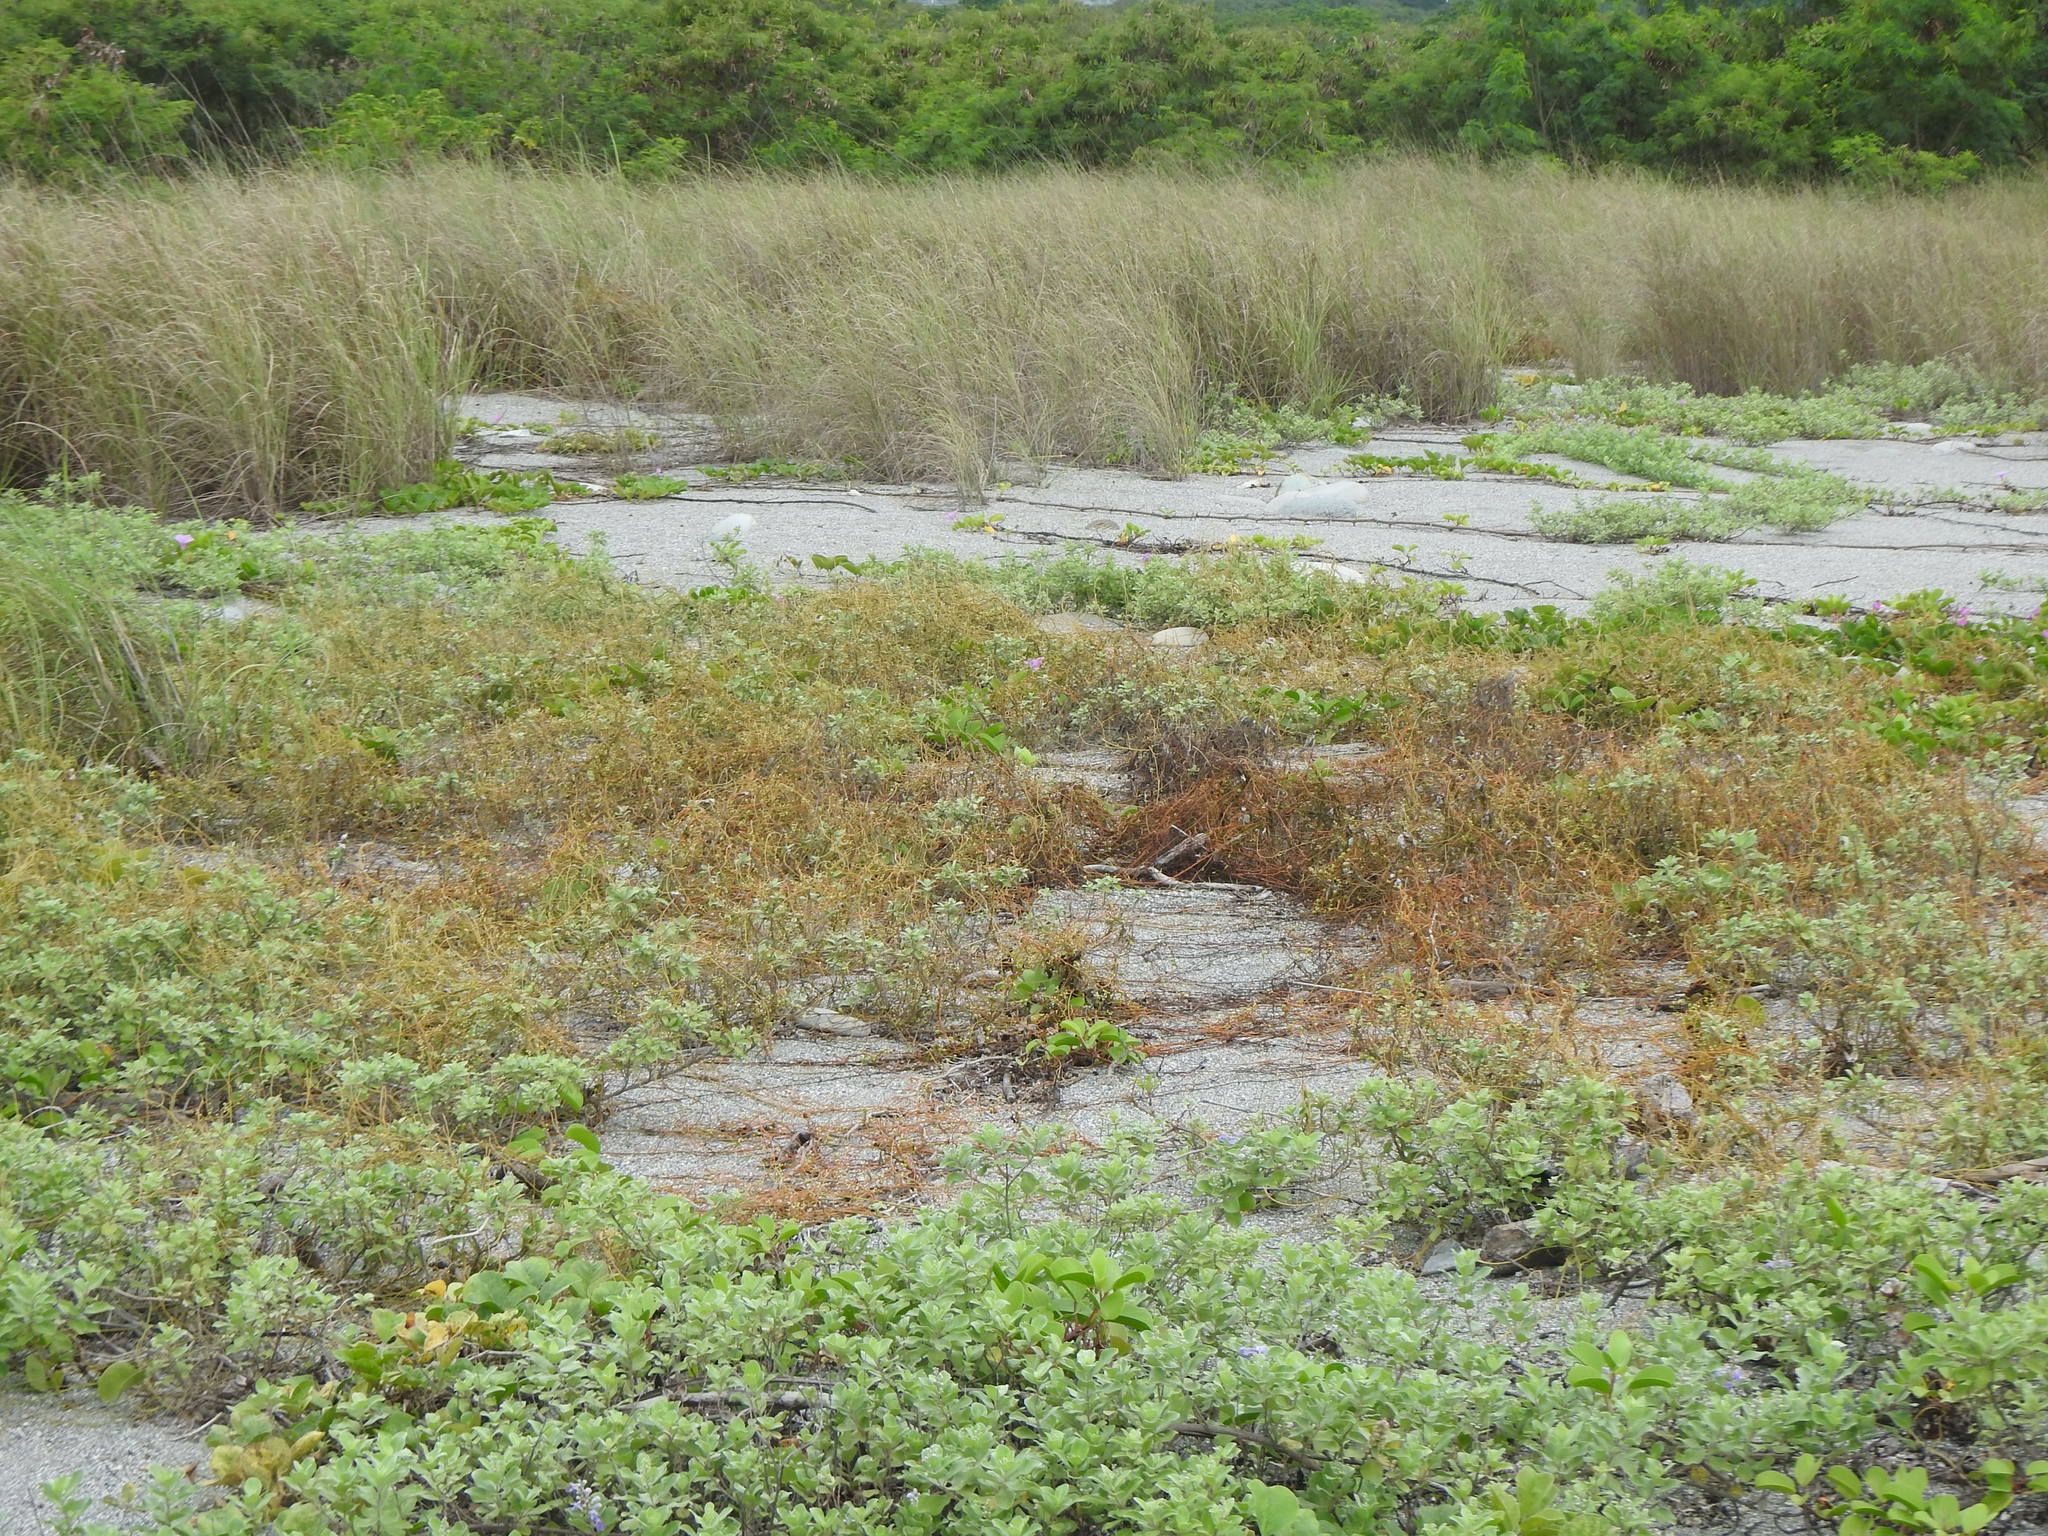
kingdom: Plantae
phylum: Tracheophyta
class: Magnoliopsida
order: Laurales
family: Lauraceae
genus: Cassytha
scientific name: Cassytha filiformis
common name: Dodder-laurel
